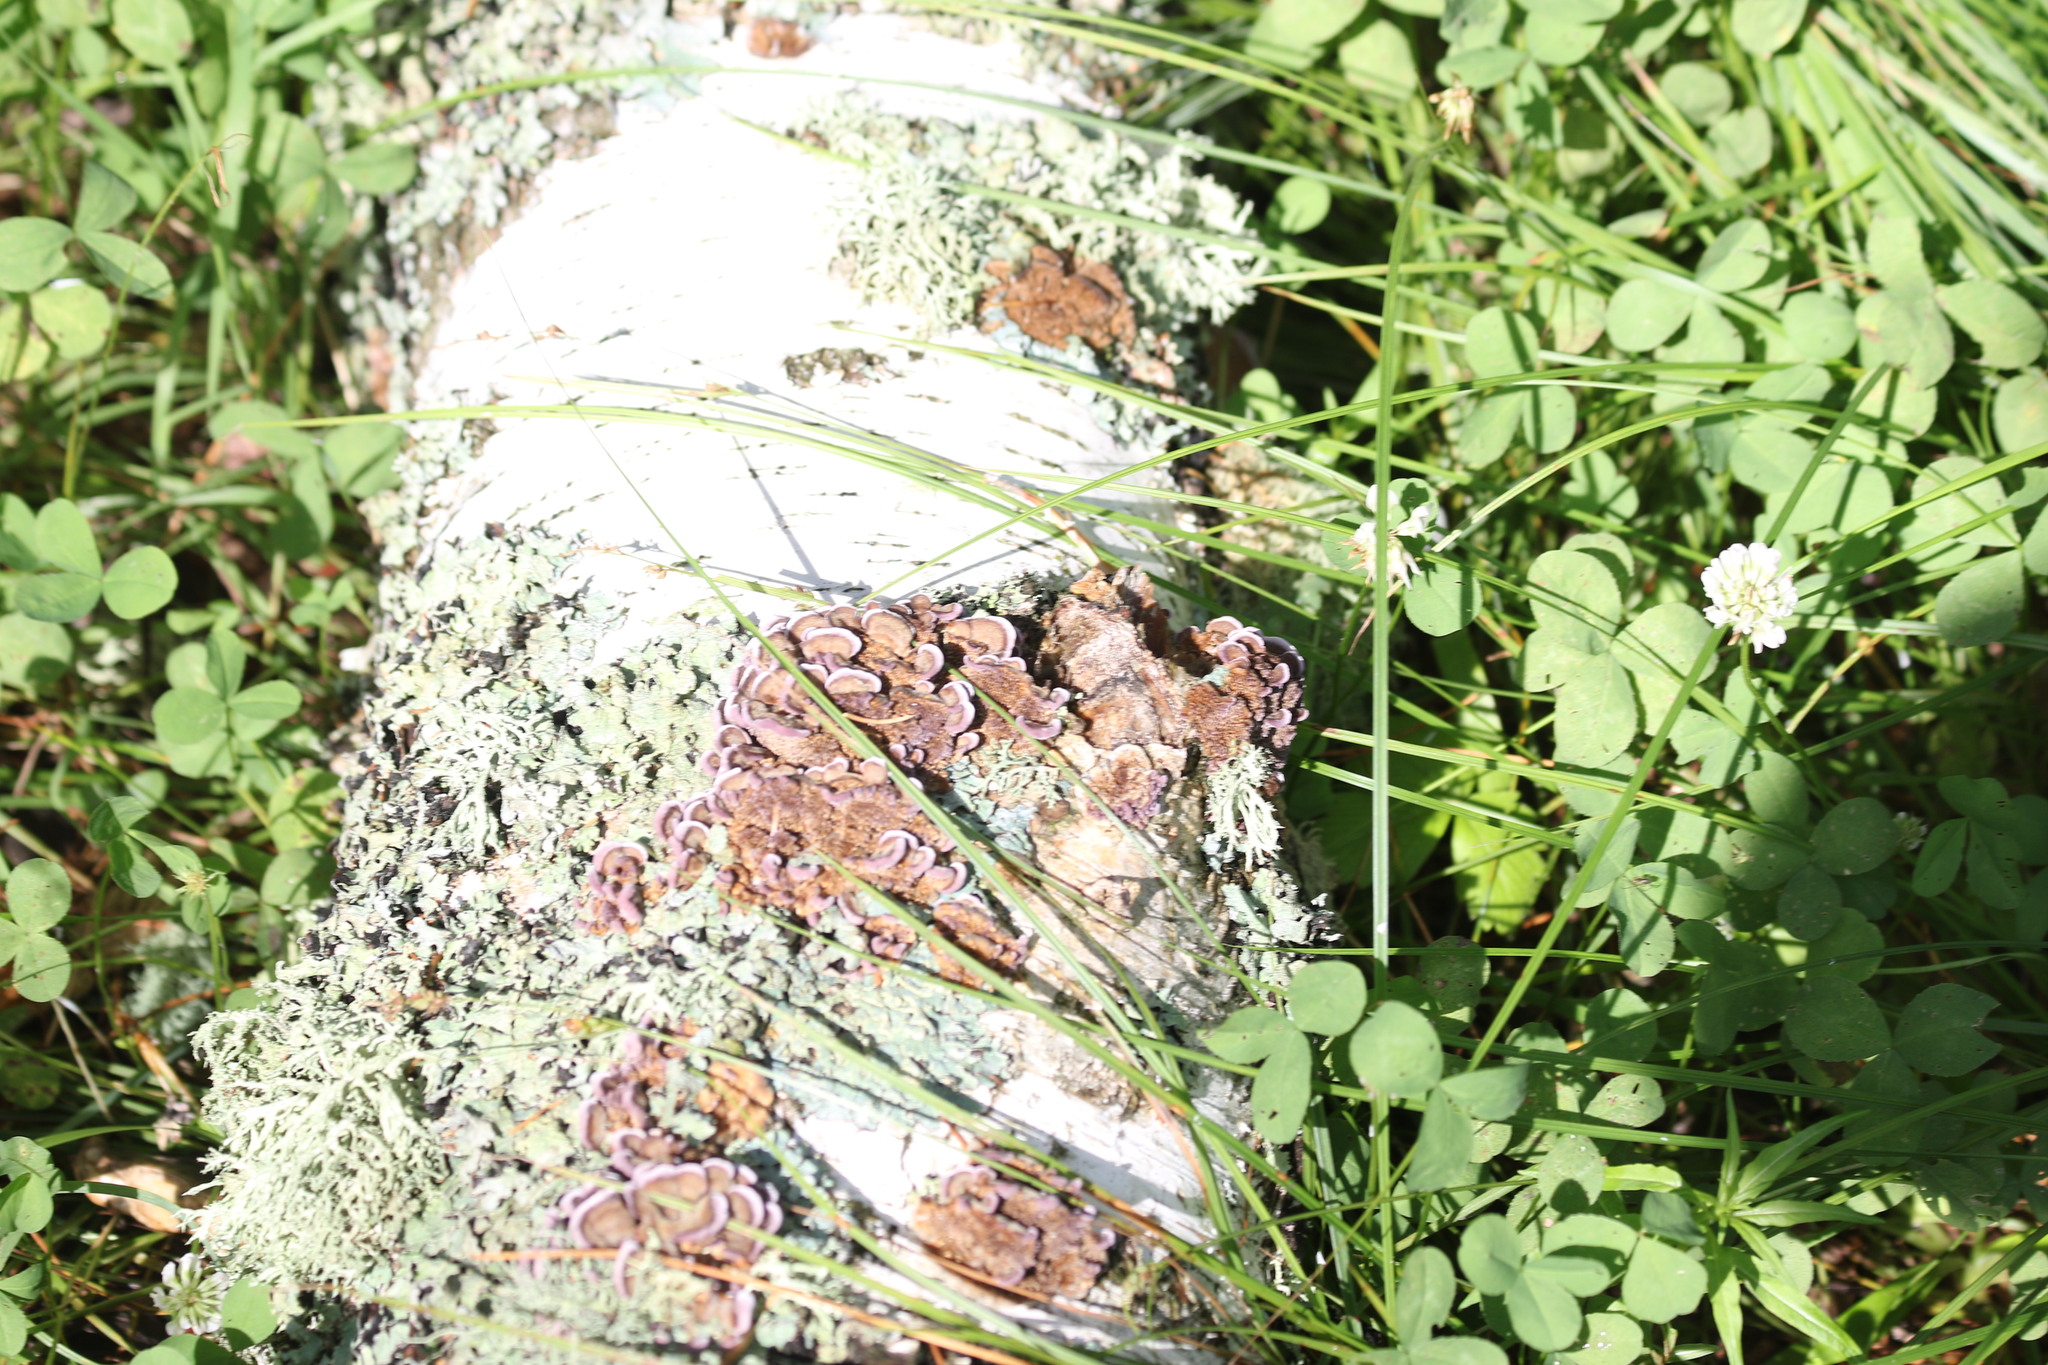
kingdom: Fungi
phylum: Basidiomycota
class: Agaricomycetes
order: Hymenochaetales
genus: Trichaptum
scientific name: Trichaptum biforme
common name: Violet-toothed polypore
